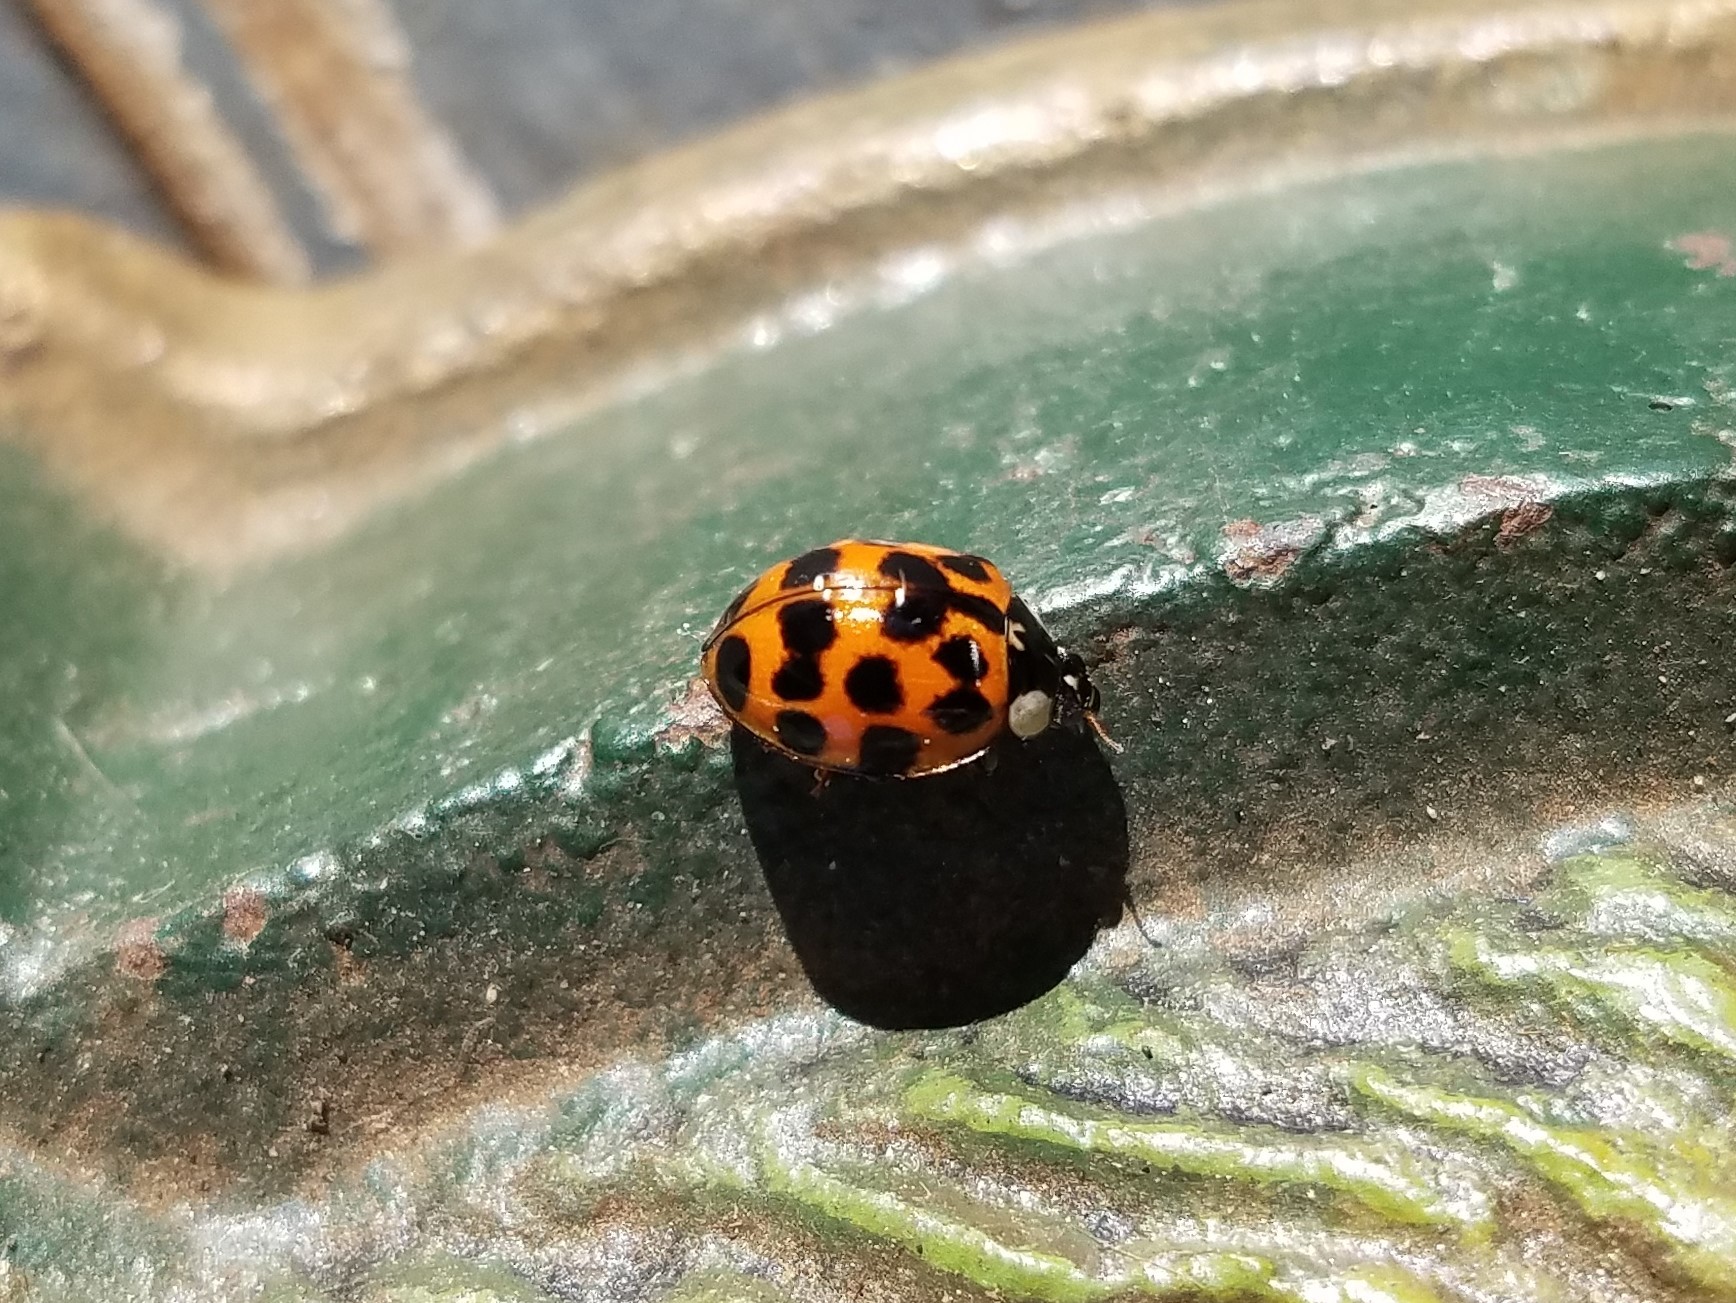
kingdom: Animalia
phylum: Arthropoda
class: Insecta
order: Coleoptera
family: Coccinellidae
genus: Harmonia
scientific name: Harmonia axyridis
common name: Harlequin ladybird
